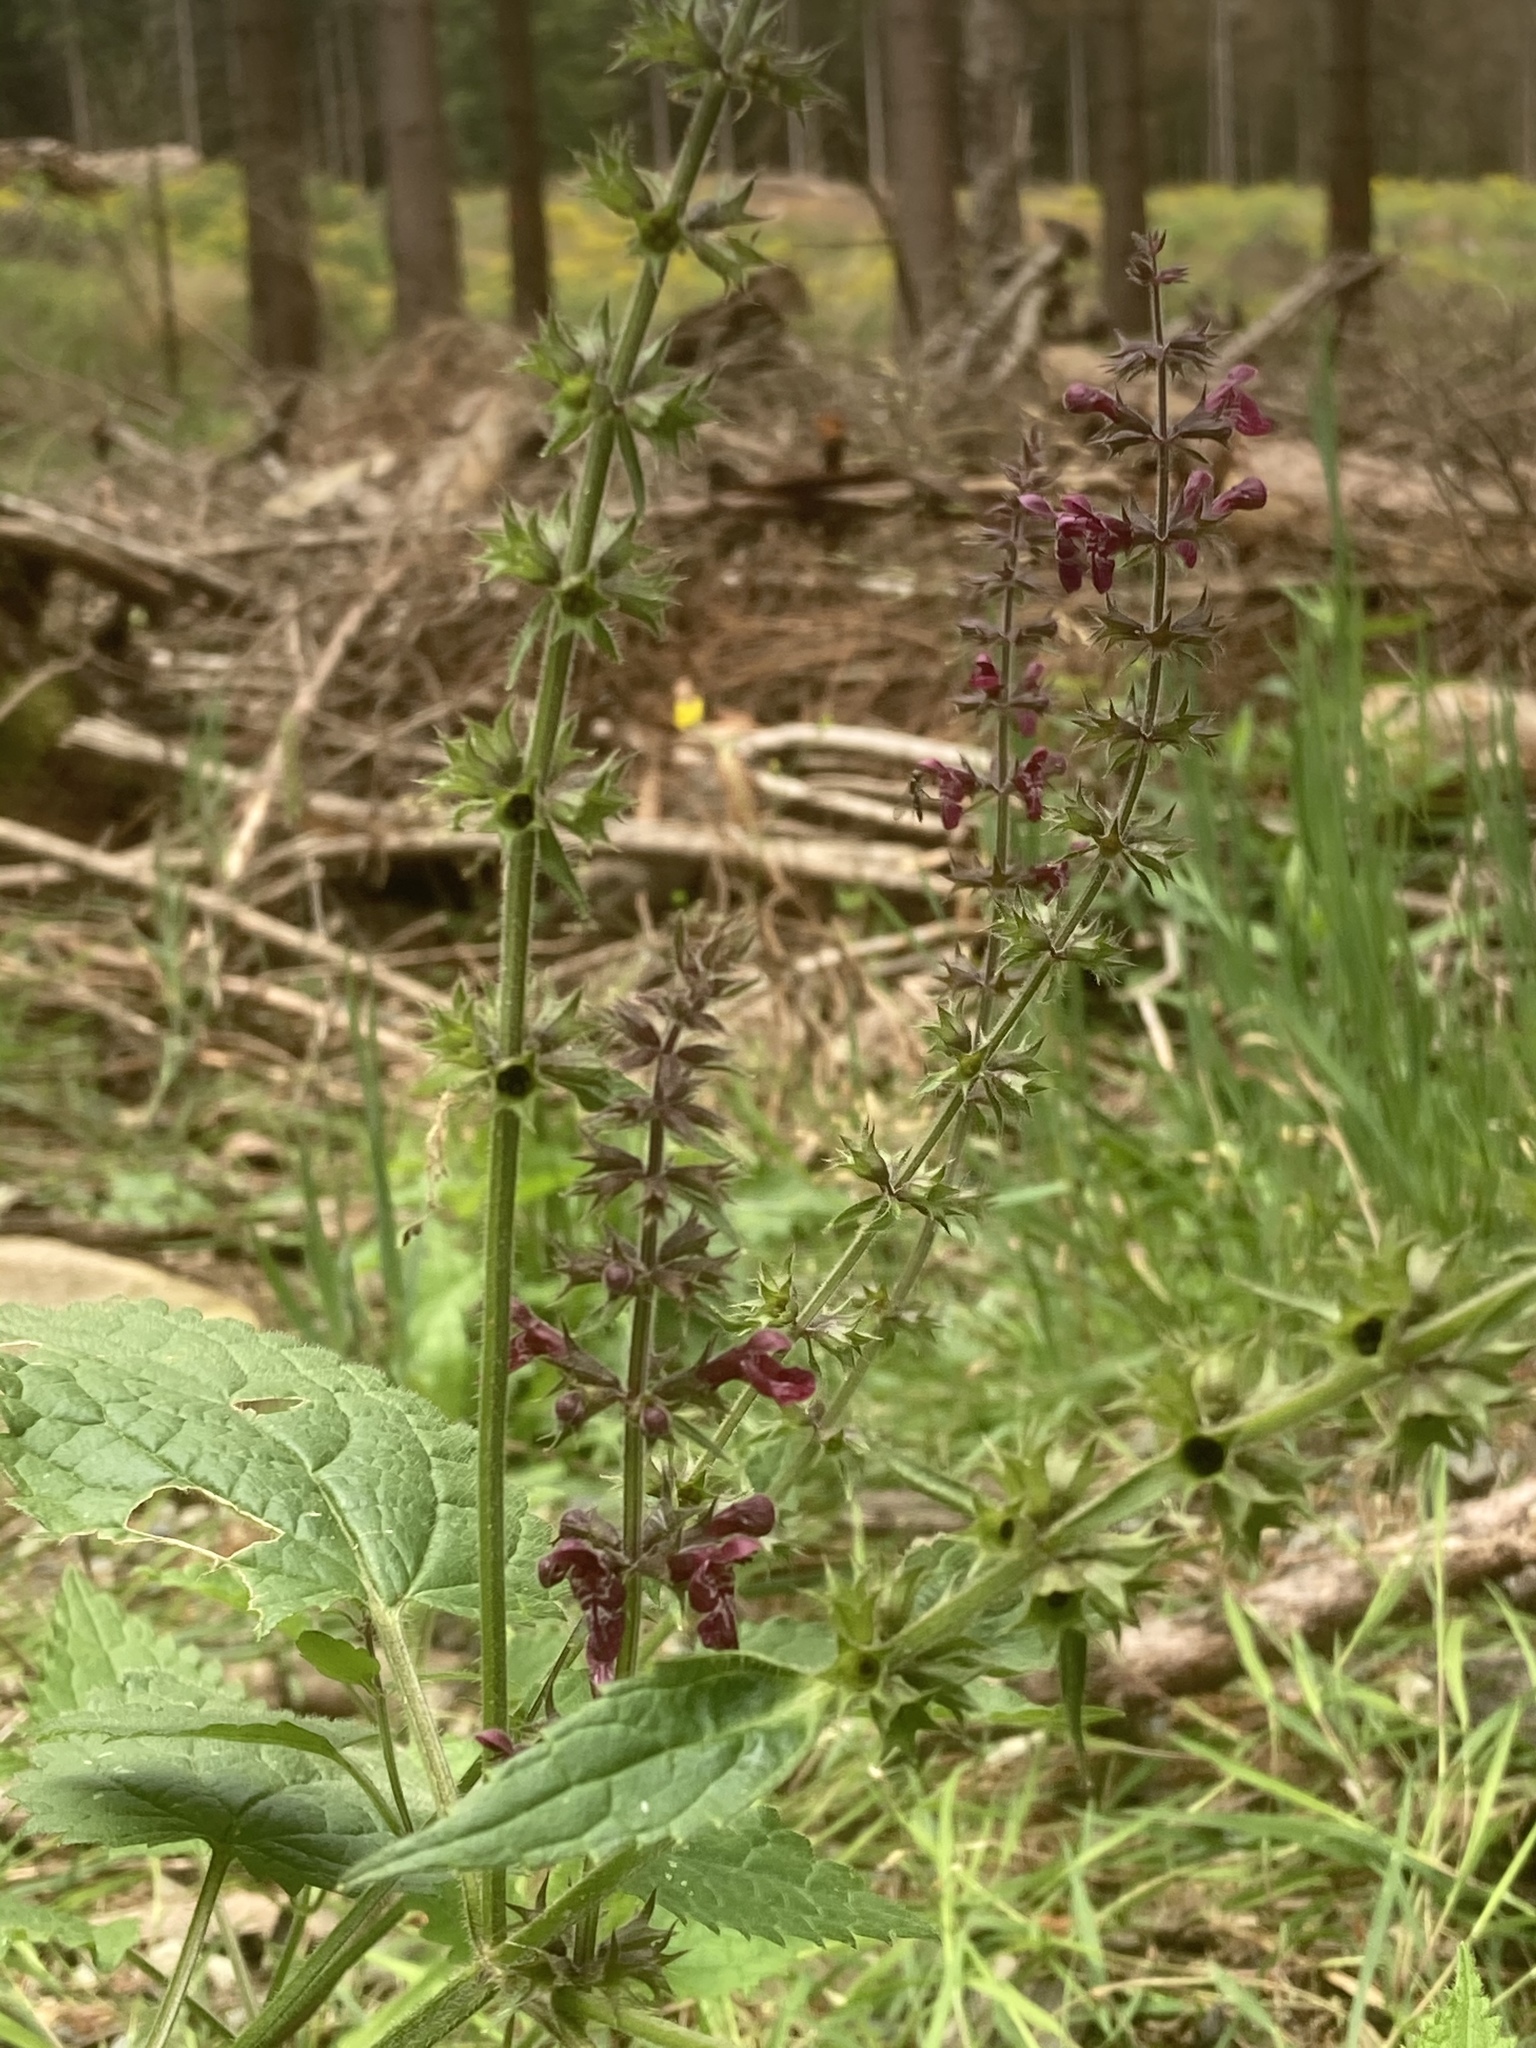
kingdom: Plantae
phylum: Tracheophyta
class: Magnoliopsida
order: Lamiales
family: Lamiaceae
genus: Stachys
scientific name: Stachys sylvatica
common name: Hedge woundwort
